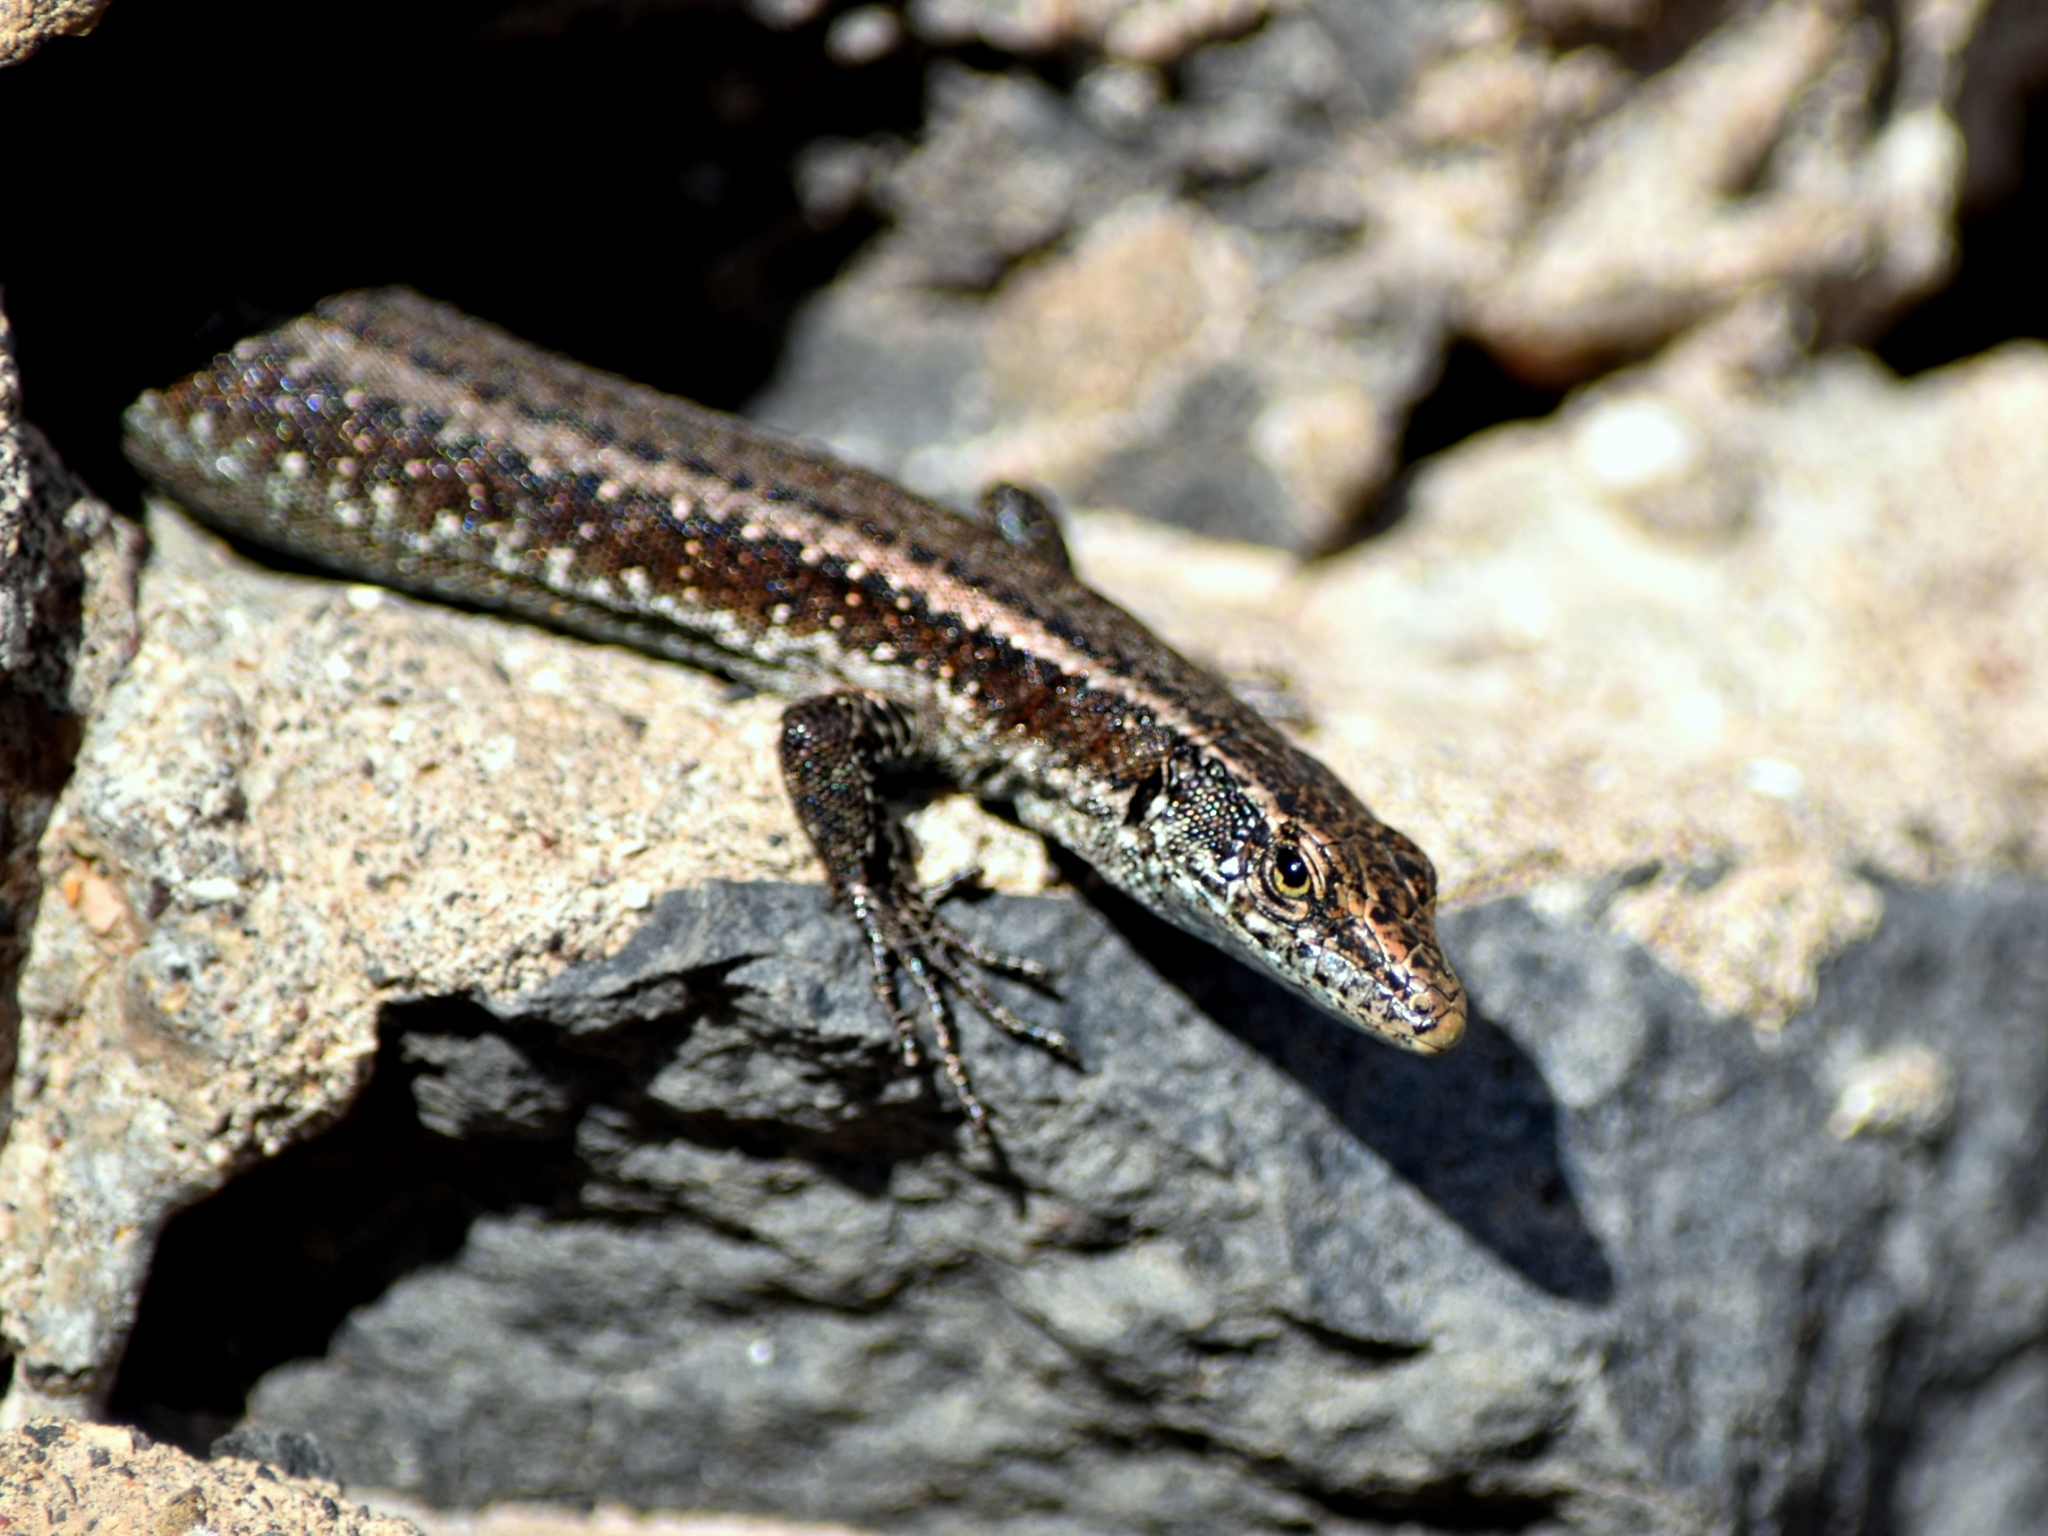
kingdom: Animalia
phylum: Chordata
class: Squamata
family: Lacertidae
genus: Teira
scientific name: Teira dugesii
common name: Madeira lizard
